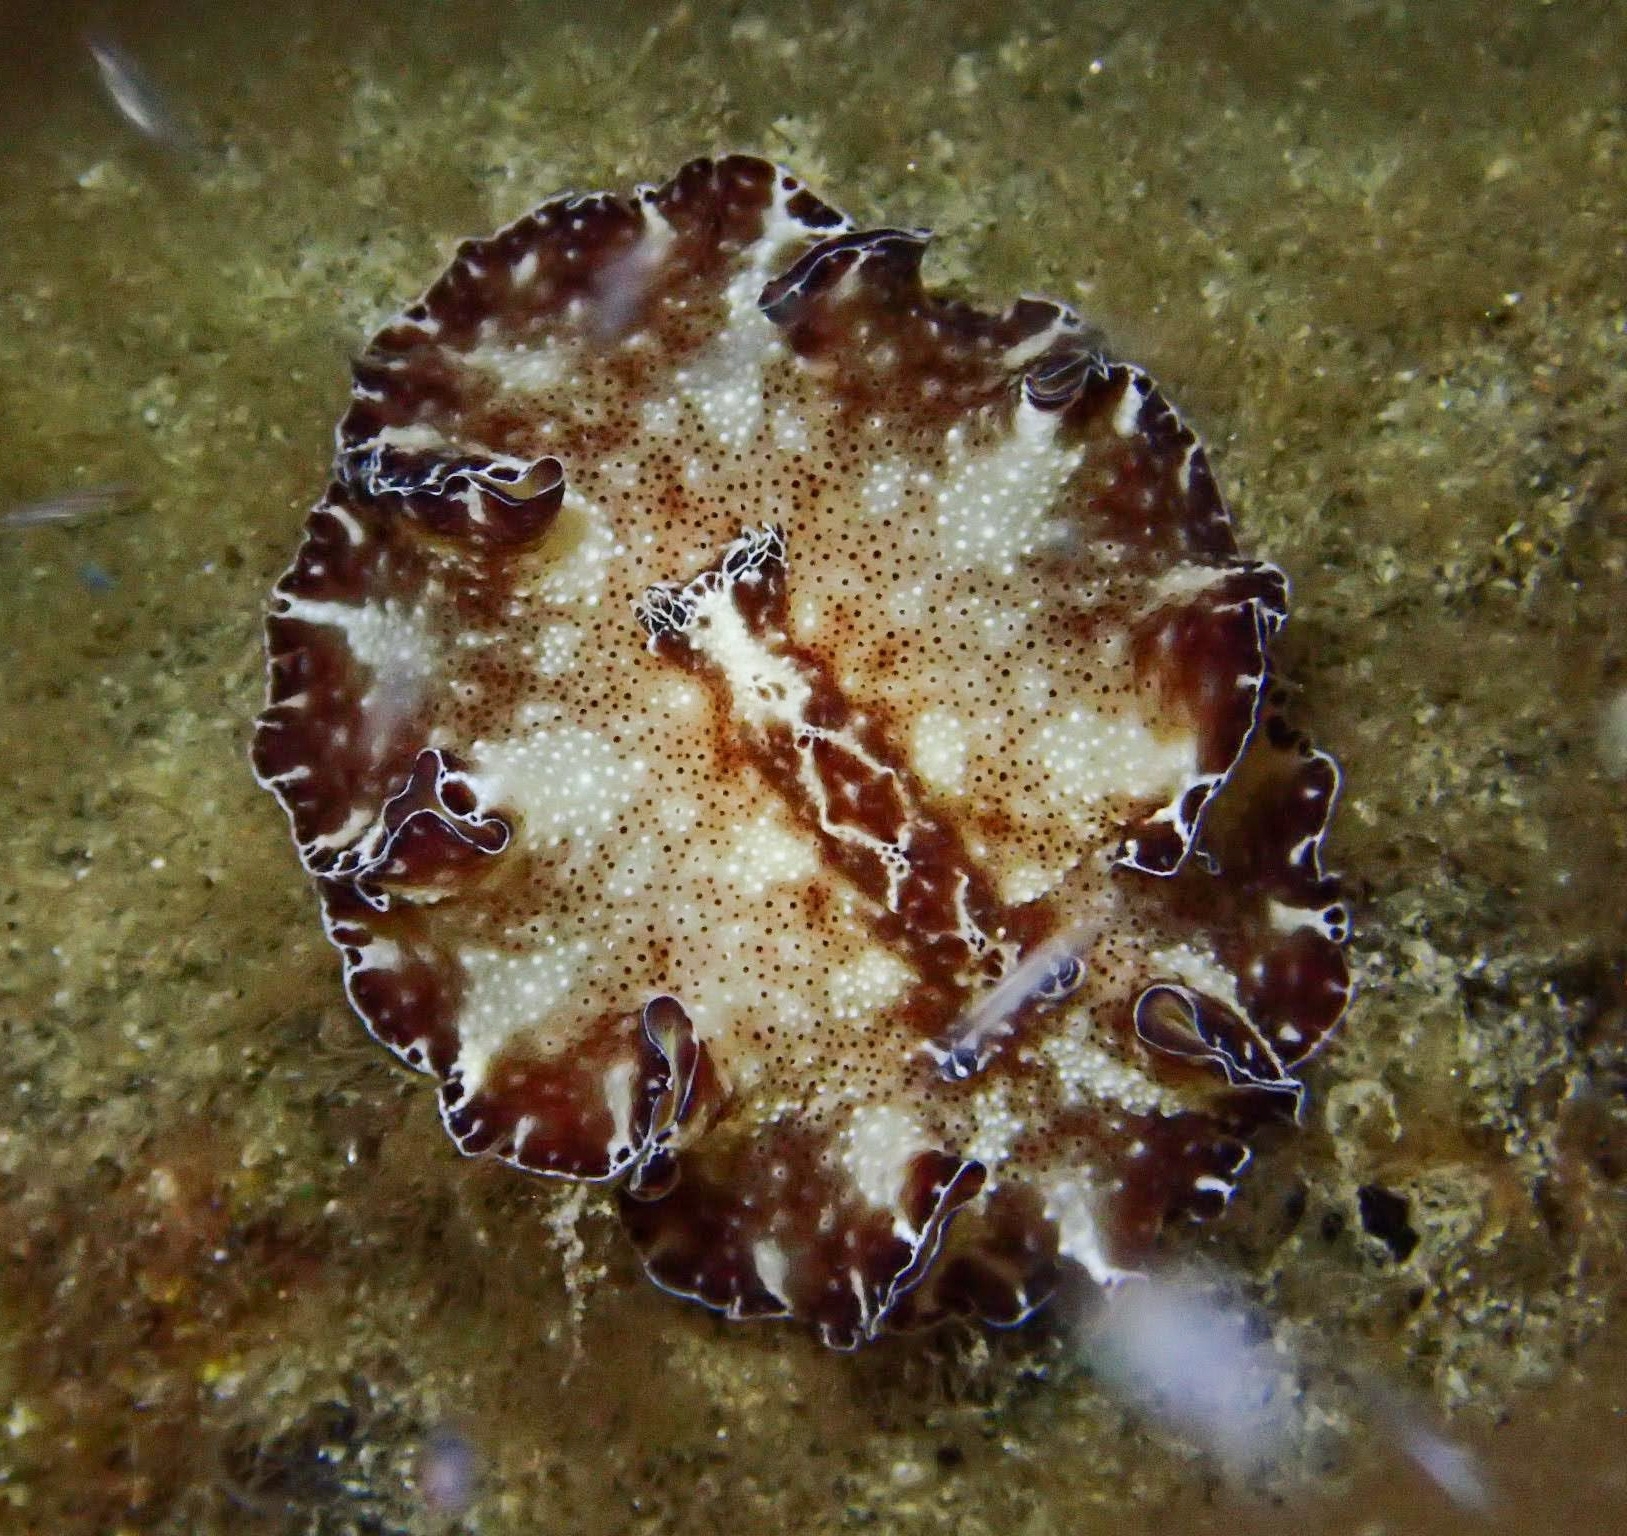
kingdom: Animalia
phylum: Mollusca
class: Gastropoda
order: Nudibranchia
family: Discodorididae
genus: Discodoris
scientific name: Discodoris boholiensis
